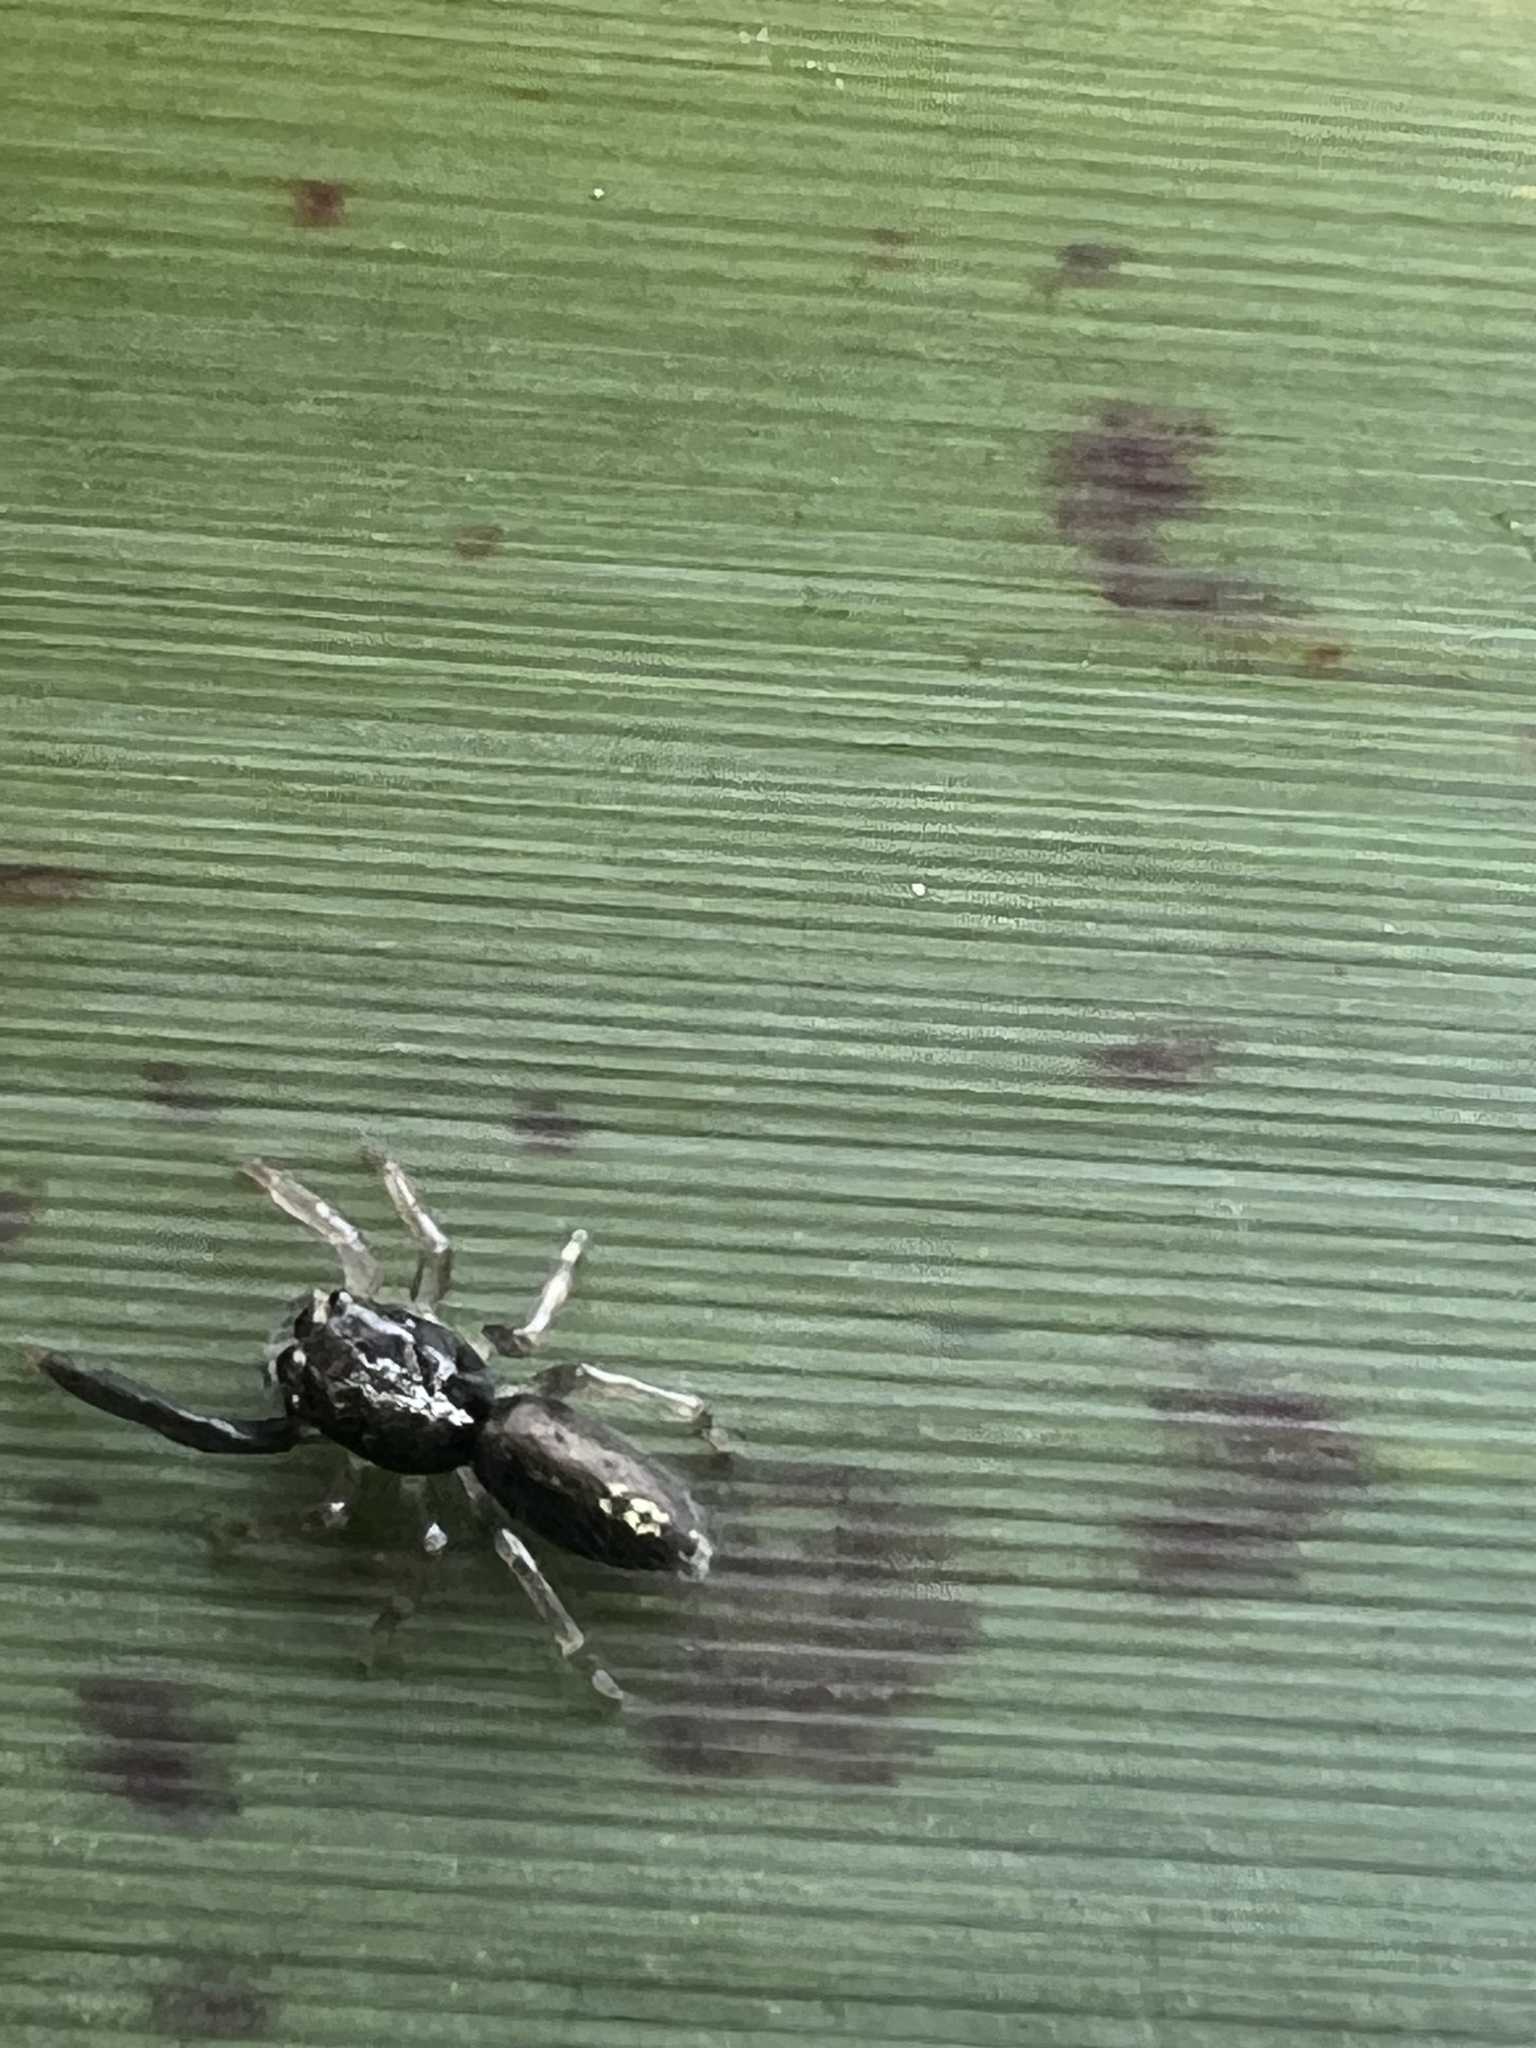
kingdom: Animalia
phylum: Arthropoda
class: Arachnida
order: Araneae
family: Salticidae
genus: Trite
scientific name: Trite planiceps
